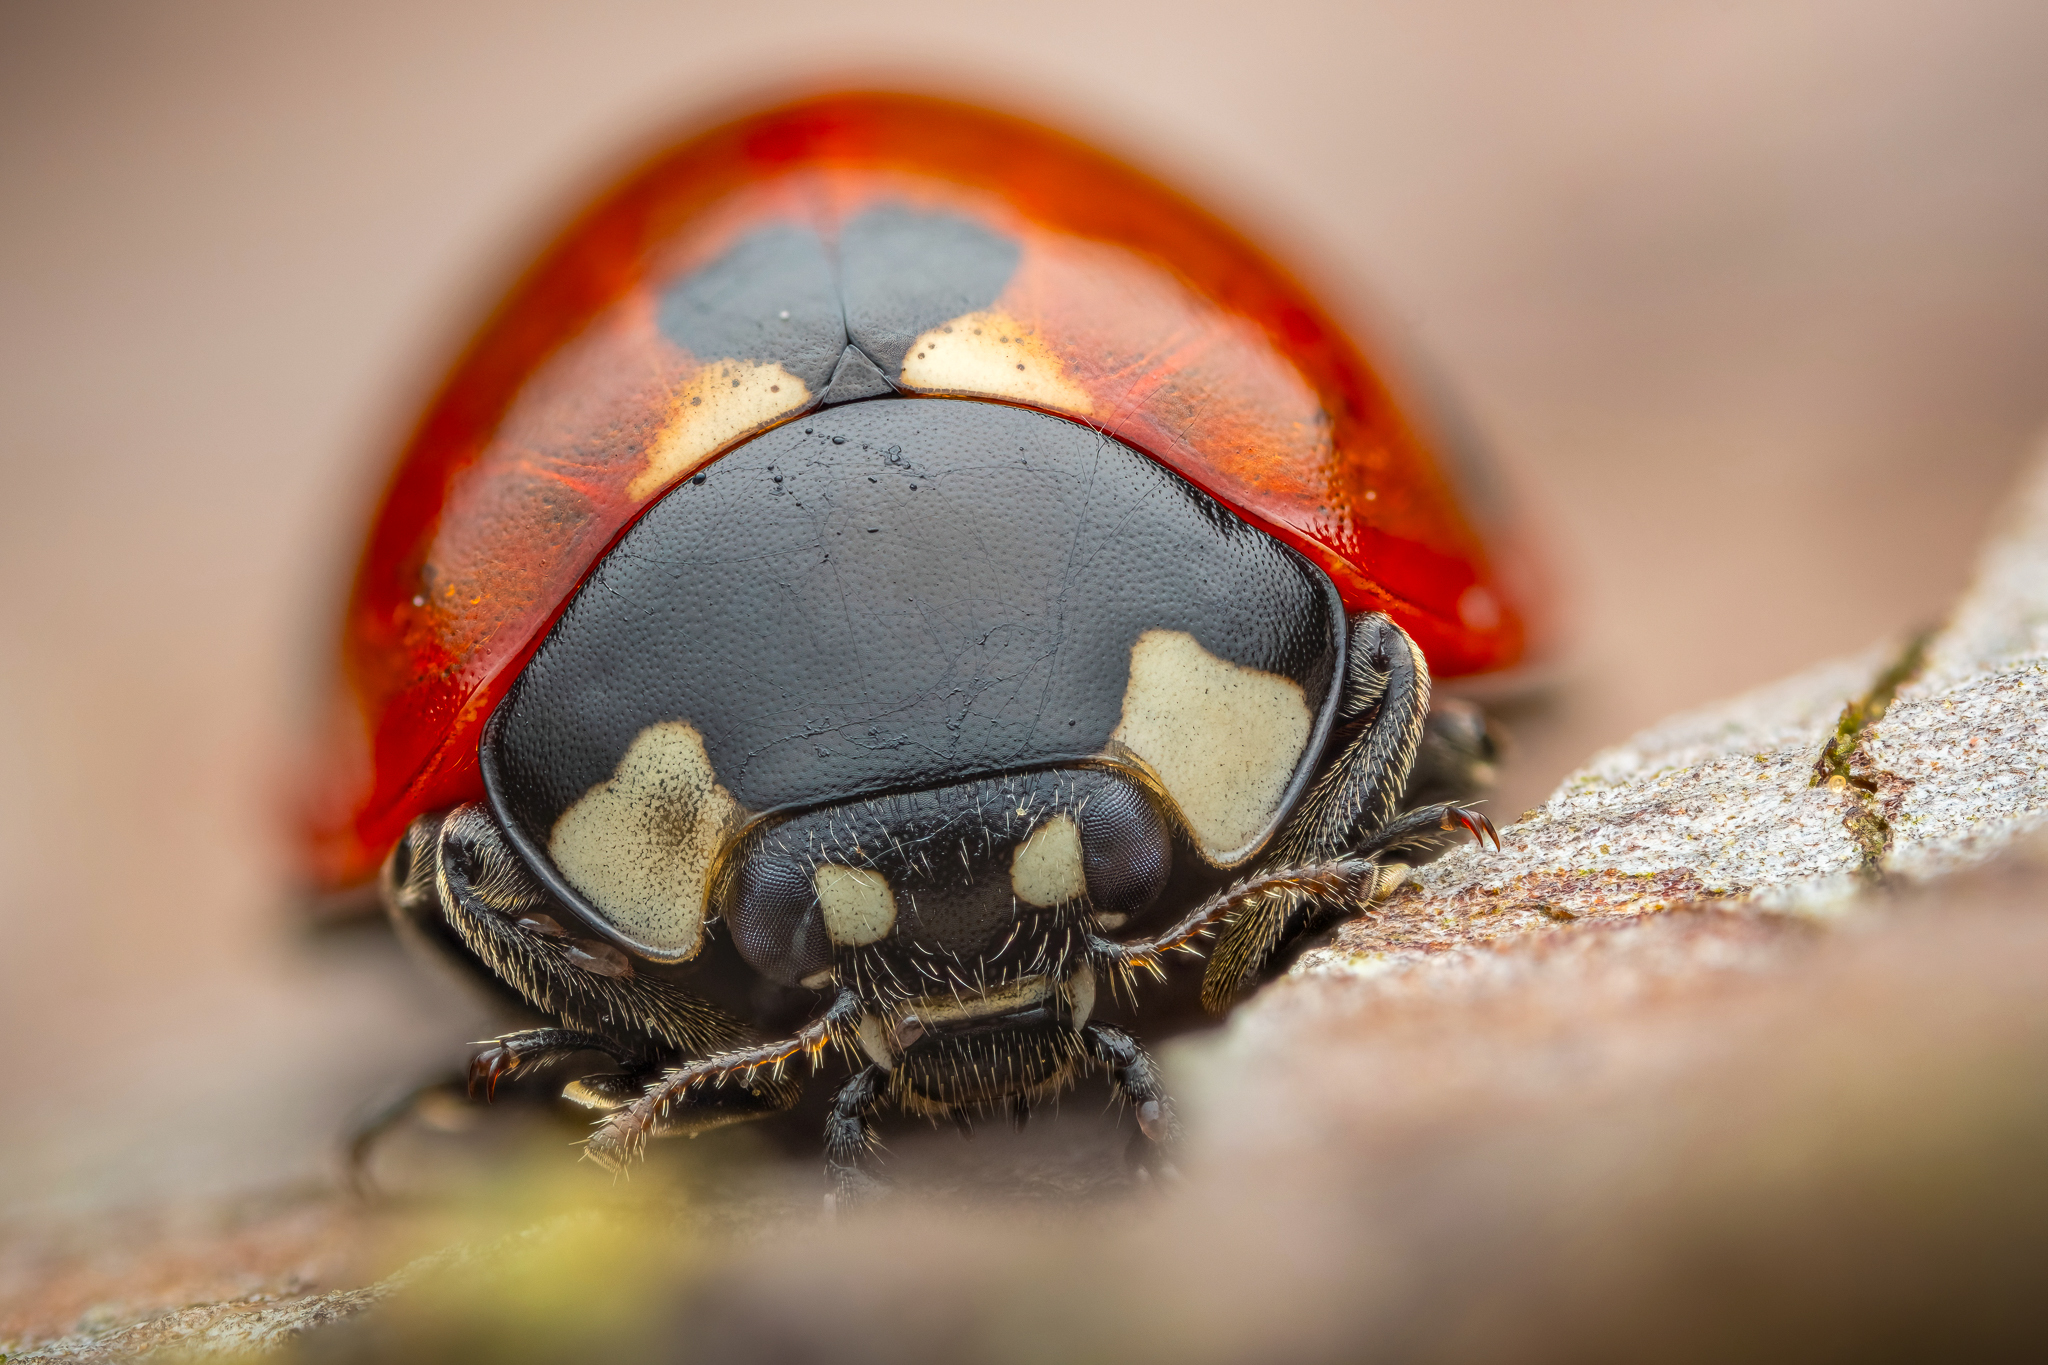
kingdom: Animalia
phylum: Arthropoda
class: Insecta
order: Coleoptera
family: Coccinellidae
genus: Coccinella
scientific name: Coccinella septempunctata
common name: Sevenspotted lady beetle
